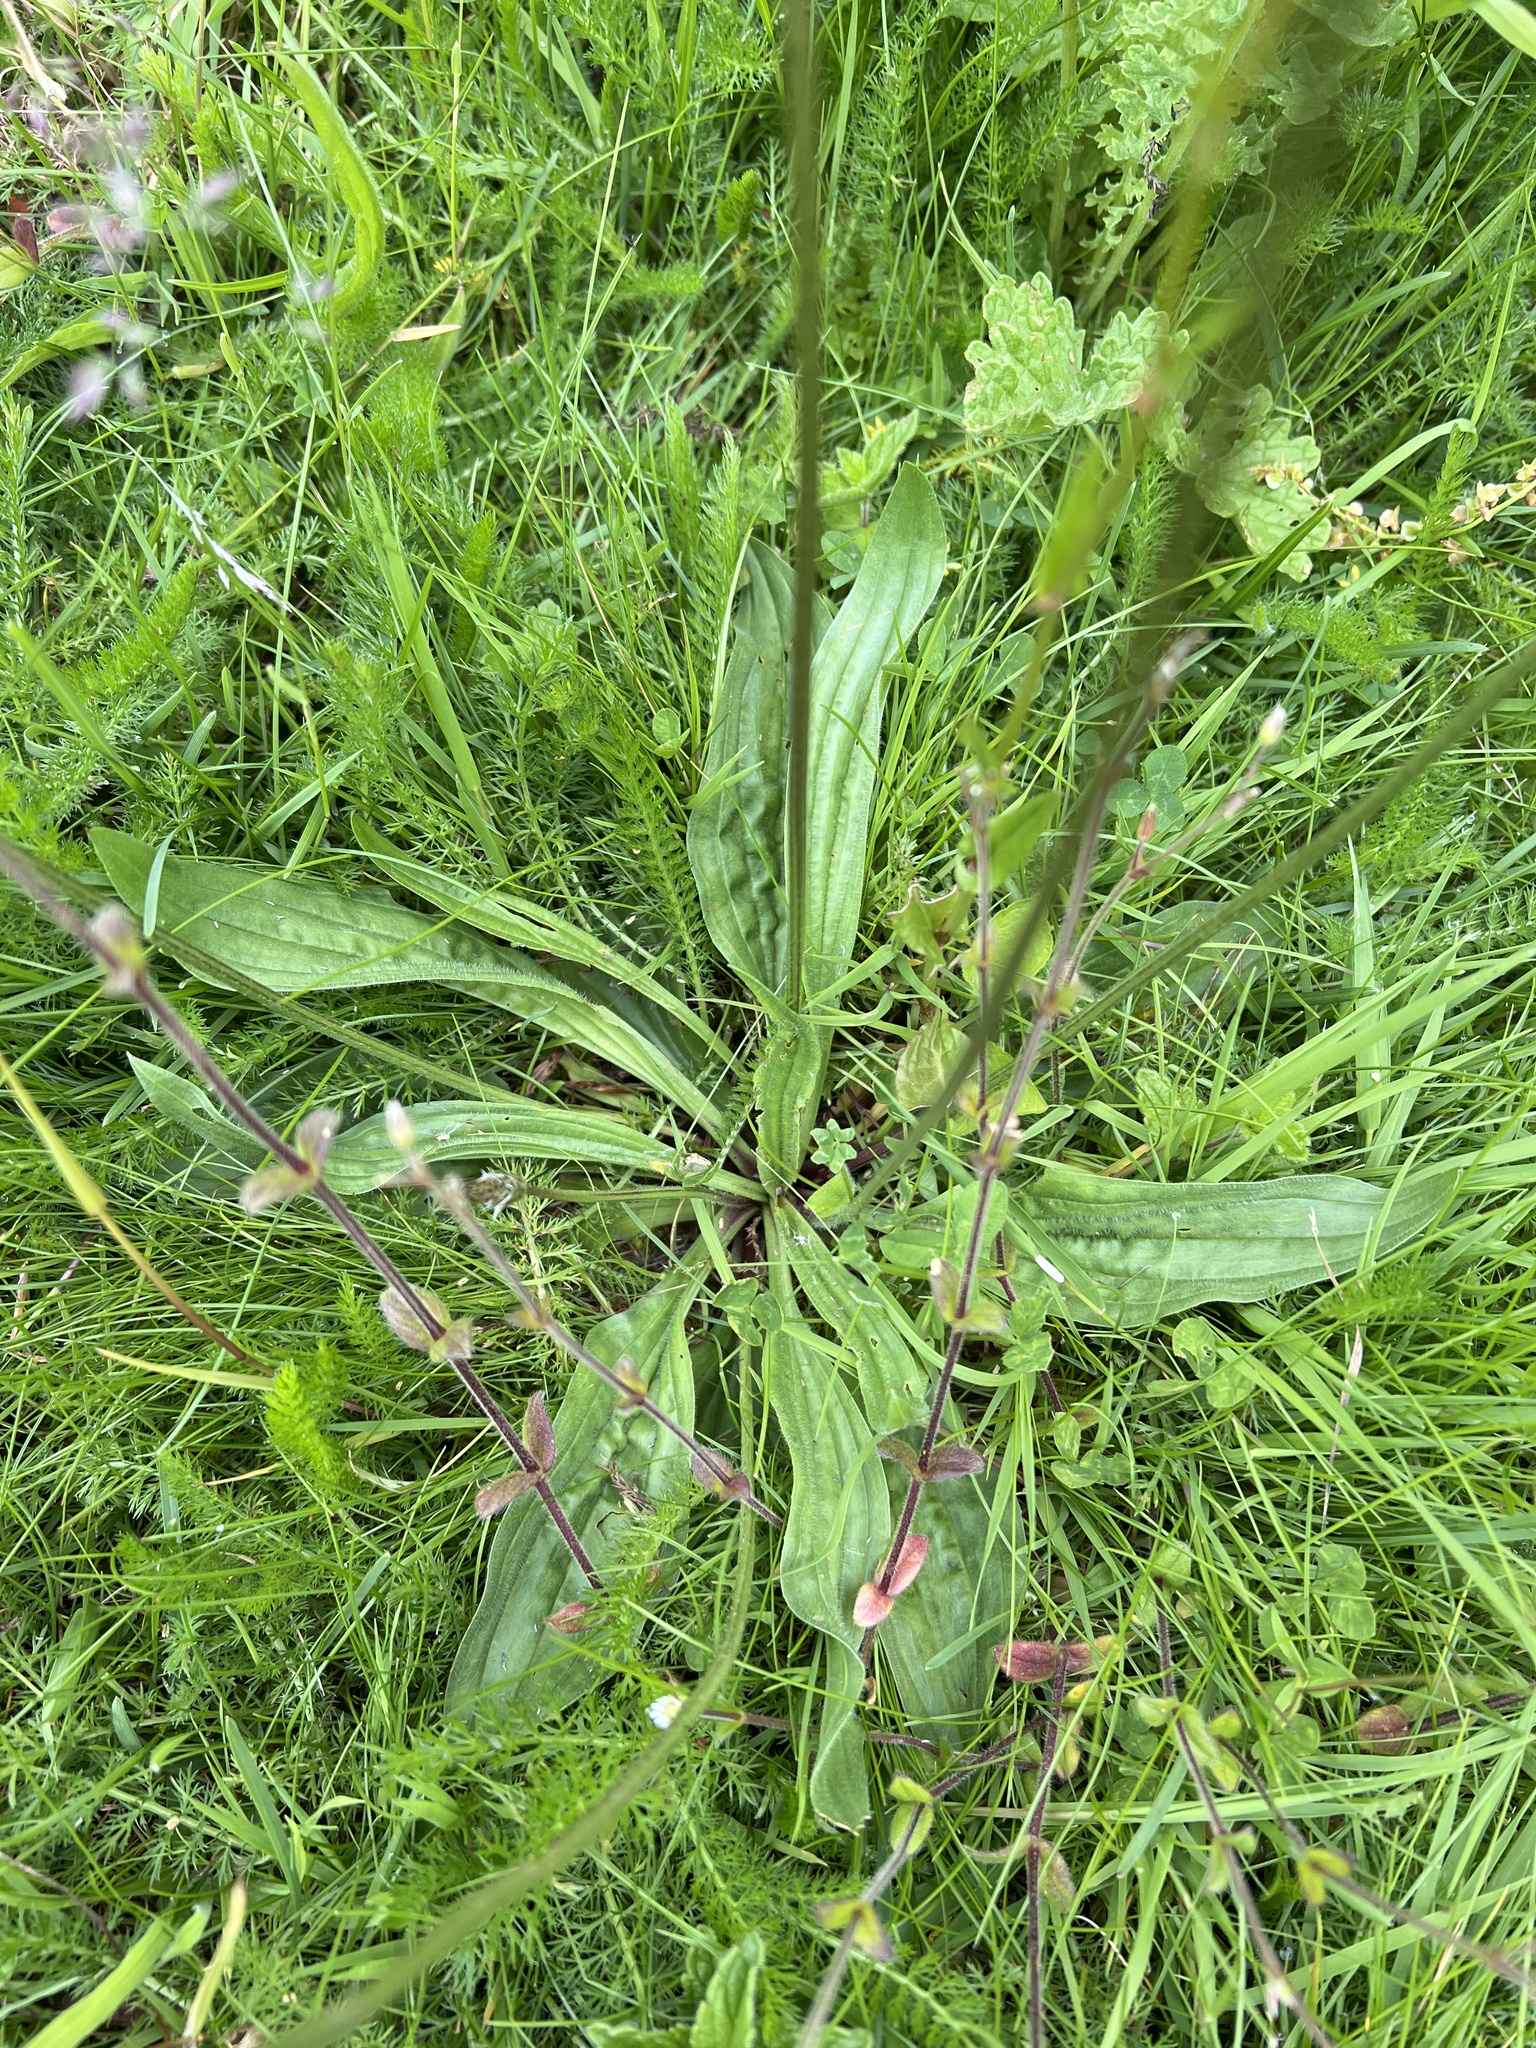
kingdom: Plantae
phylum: Tracheophyta
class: Magnoliopsida
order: Lamiales
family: Plantaginaceae
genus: Plantago
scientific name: Plantago lanceolata
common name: Ribwort plantain
